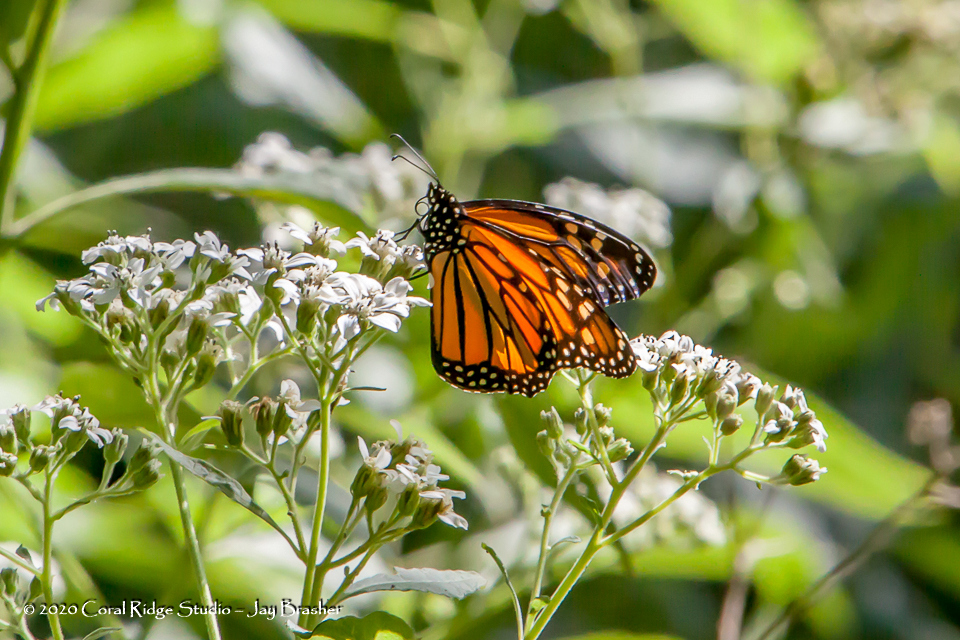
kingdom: Animalia
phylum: Arthropoda
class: Insecta
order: Lepidoptera
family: Nymphalidae
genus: Danaus
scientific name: Danaus plexippus
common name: Monarch
